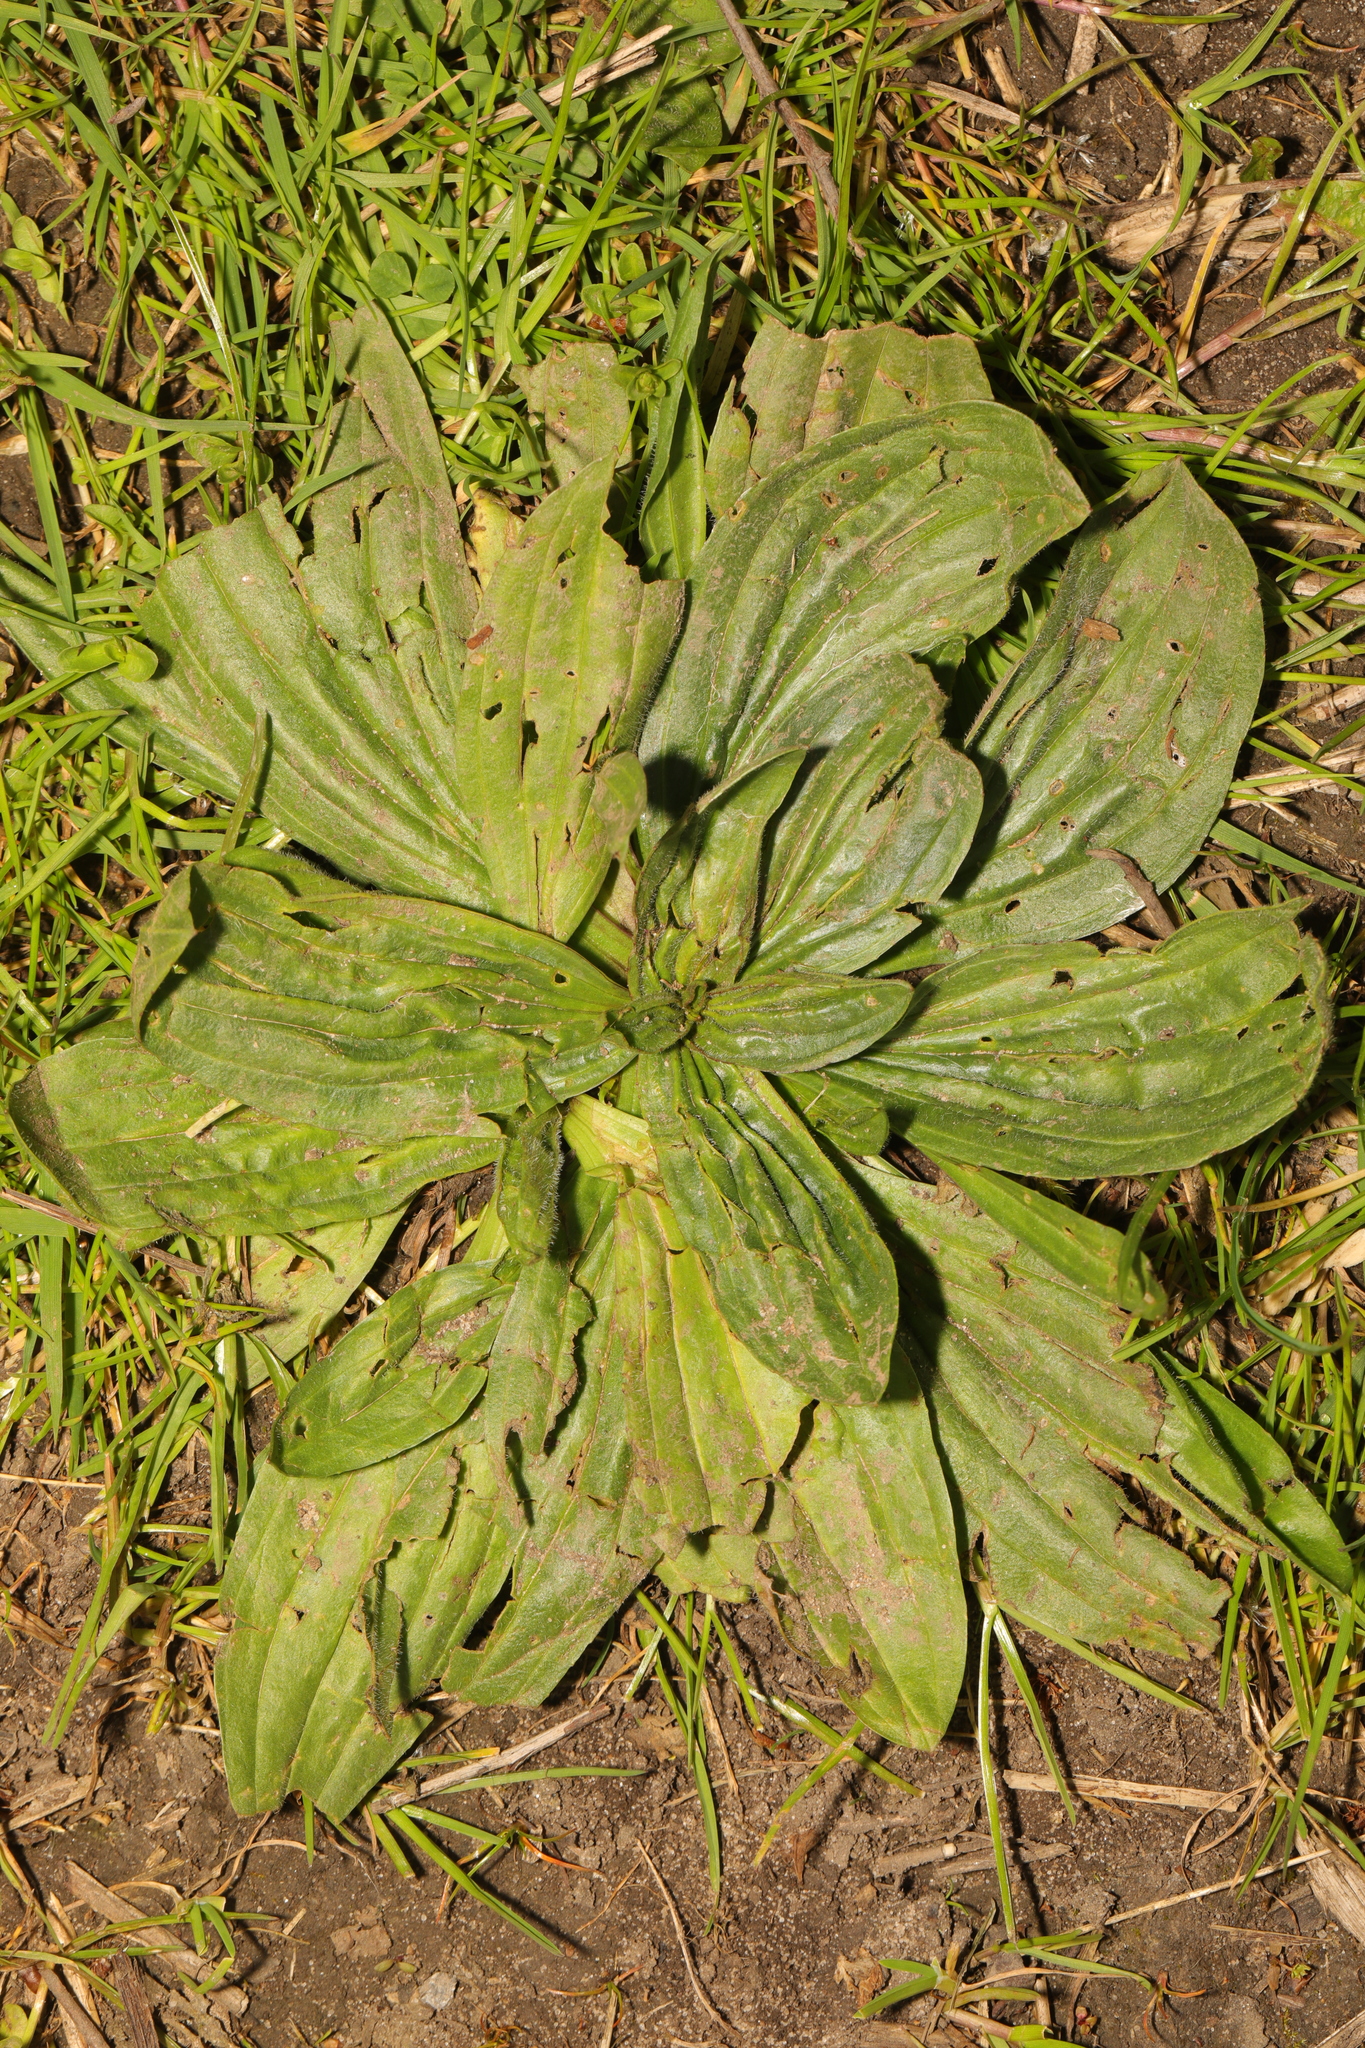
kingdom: Plantae
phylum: Tracheophyta
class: Magnoliopsida
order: Lamiales
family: Plantaginaceae
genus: Plantago
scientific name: Plantago lanceolata
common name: Ribwort plantain
